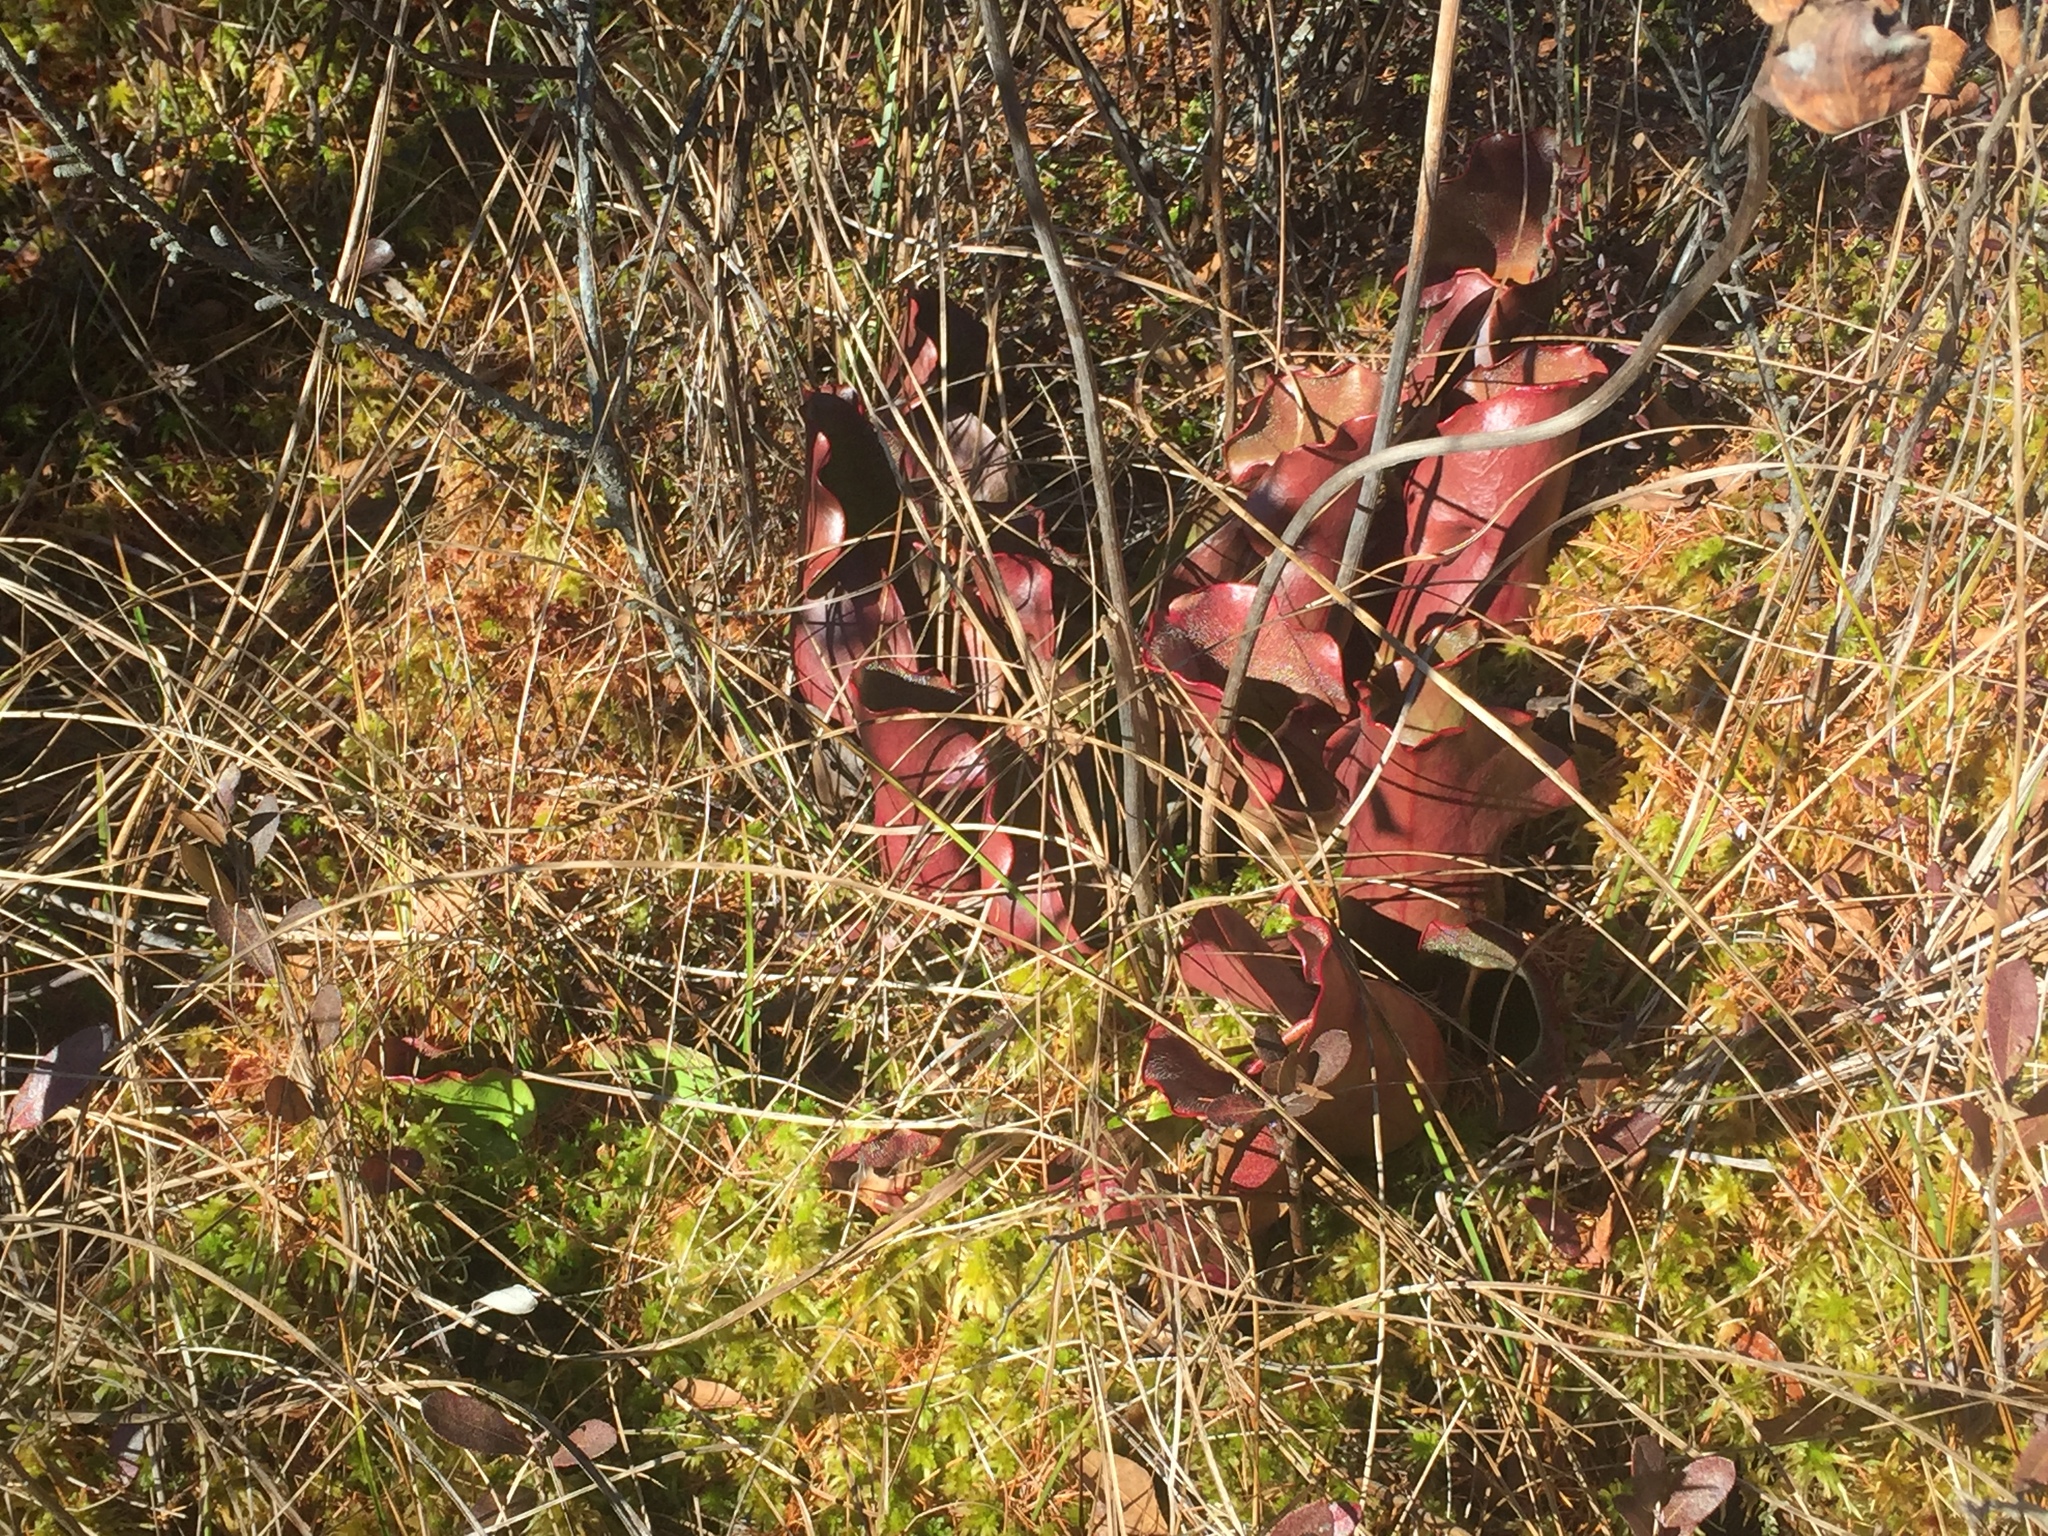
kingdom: Plantae
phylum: Tracheophyta
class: Magnoliopsida
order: Ericales
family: Sarraceniaceae
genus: Sarracenia
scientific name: Sarracenia purpurea
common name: Pitcherplant
